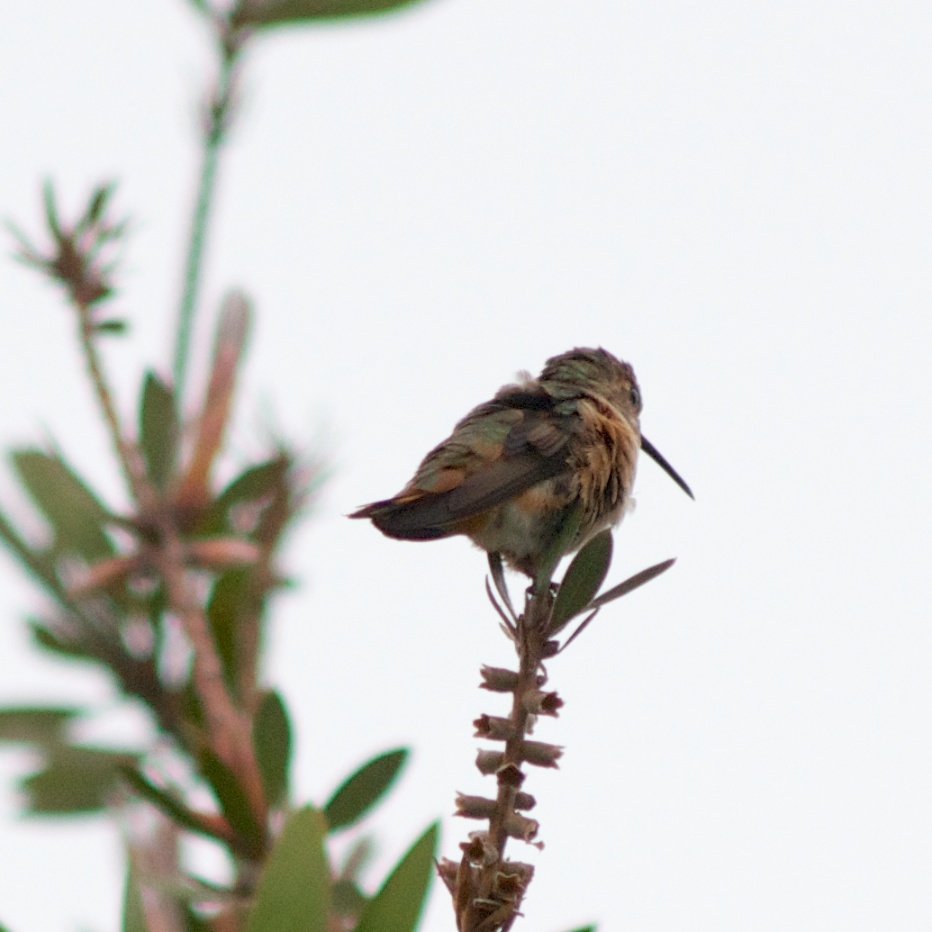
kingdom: Animalia
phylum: Chordata
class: Aves
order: Apodiformes
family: Trochilidae
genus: Selasphorus
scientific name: Selasphorus sasin
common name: Allen's hummingbird
